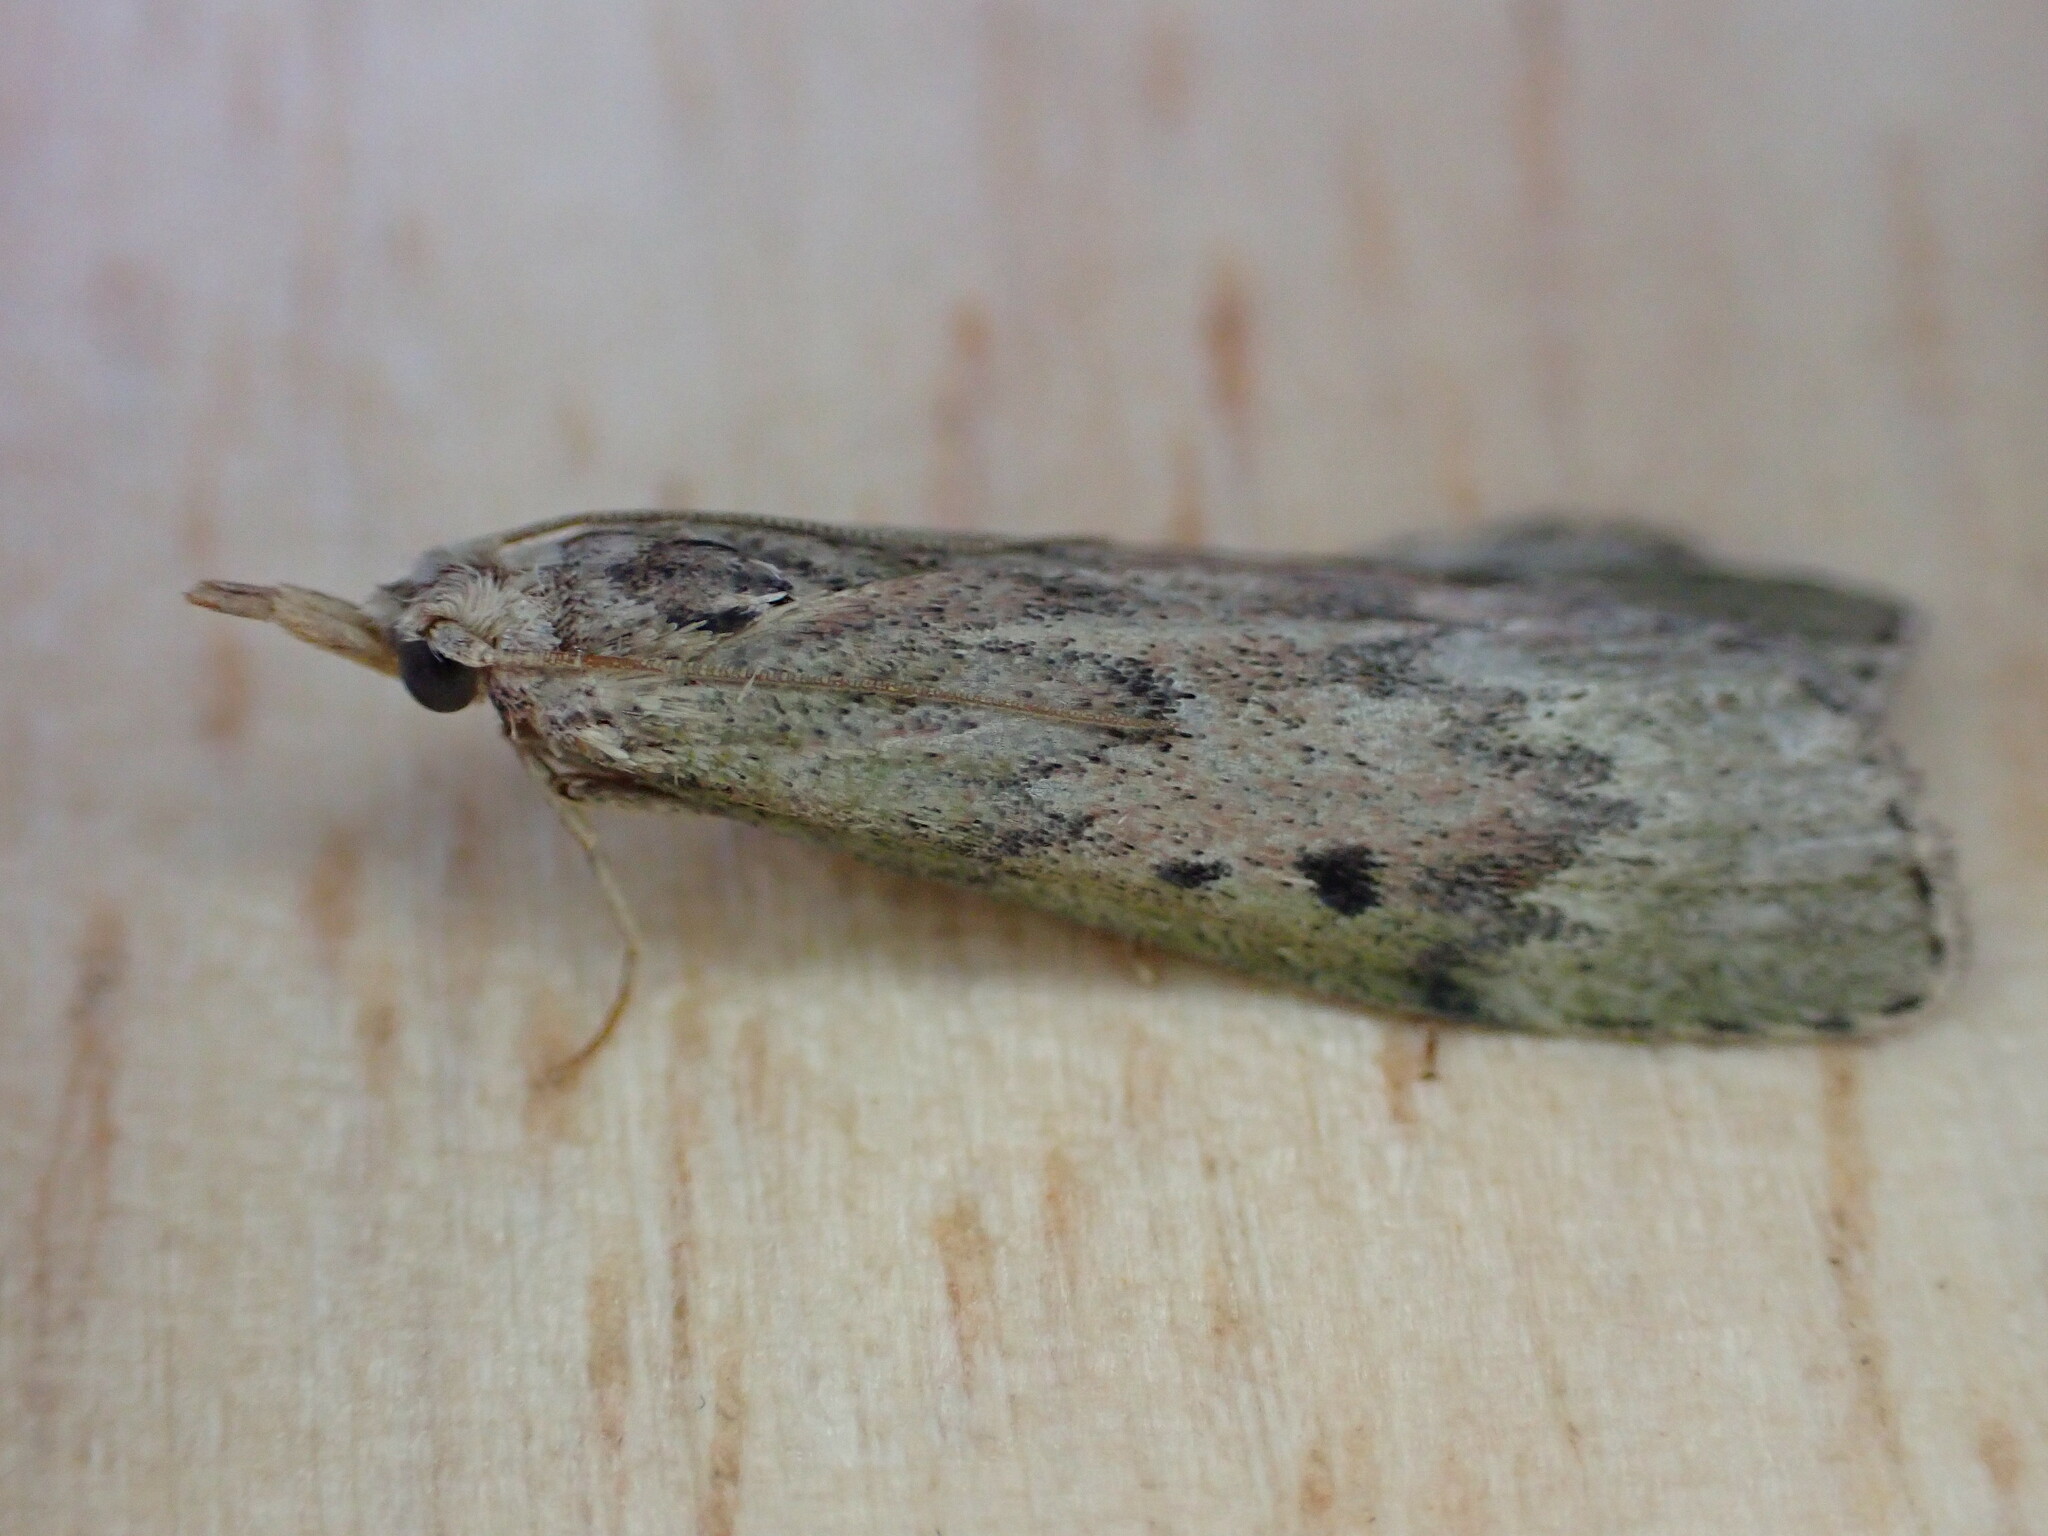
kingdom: Animalia
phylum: Arthropoda
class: Insecta
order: Lepidoptera
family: Pyralidae
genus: Aphomia
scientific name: Aphomia sociella
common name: Bee moth
